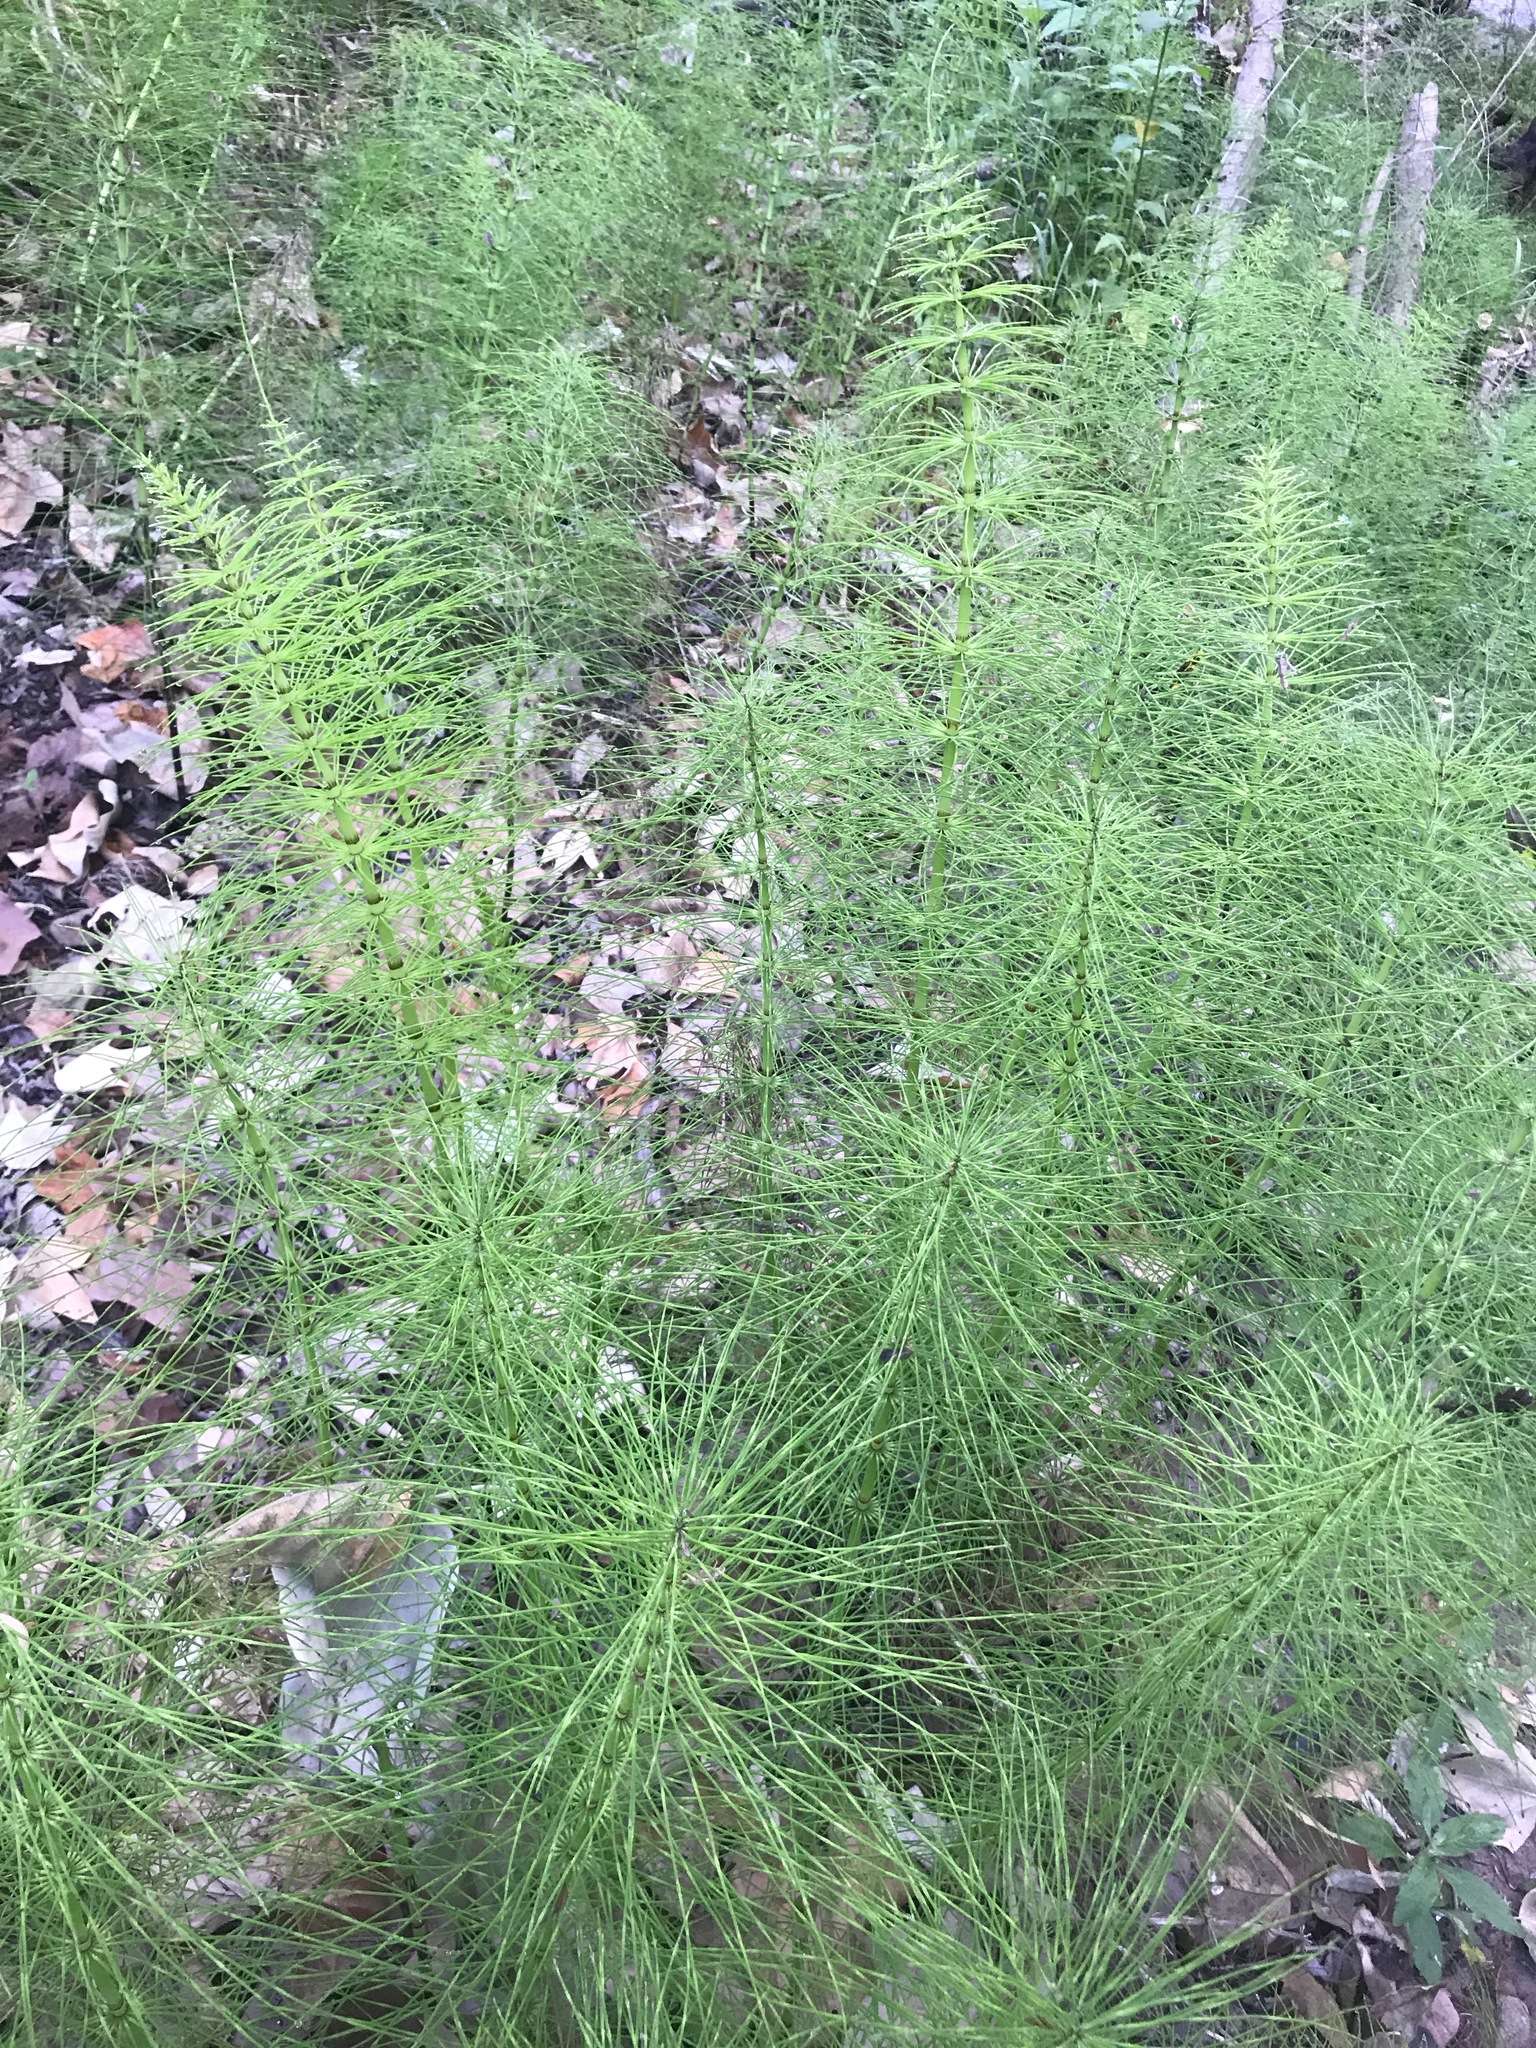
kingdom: Plantae
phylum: Tracheophyta
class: Polypodiopsida
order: Equisetales
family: Equisetaceae
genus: Equisetum
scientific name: Equisetum telmateia
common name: Great horsetail
